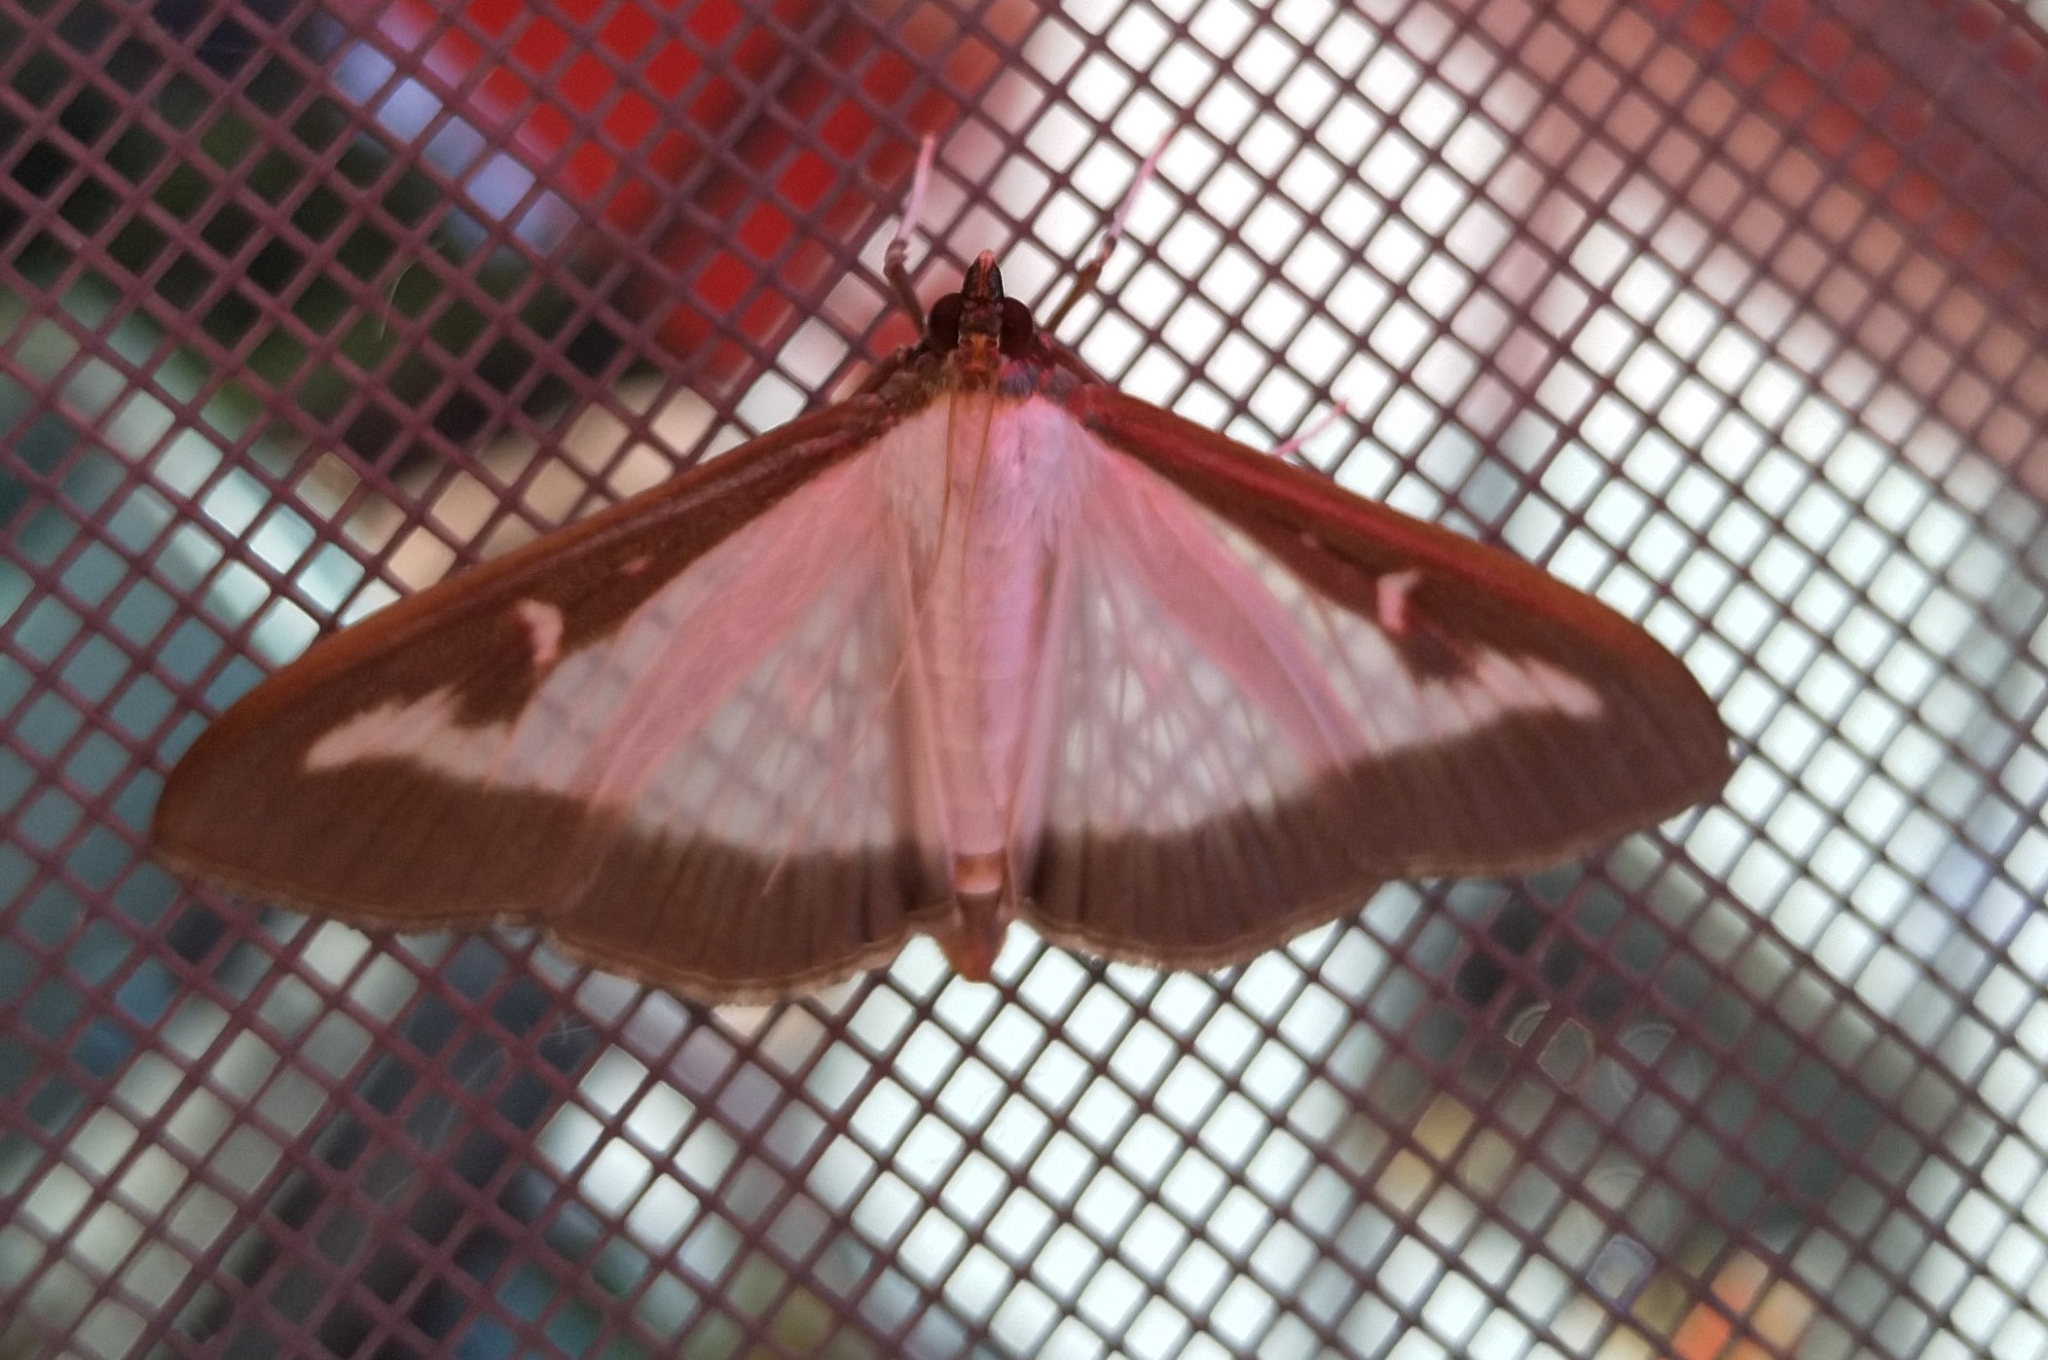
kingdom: Animalia
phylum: Arthropoda
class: Insecta
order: Lepidoptera
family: Crambidae
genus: Cydalima
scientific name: Cydalima perspectalis
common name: Box tree moth
